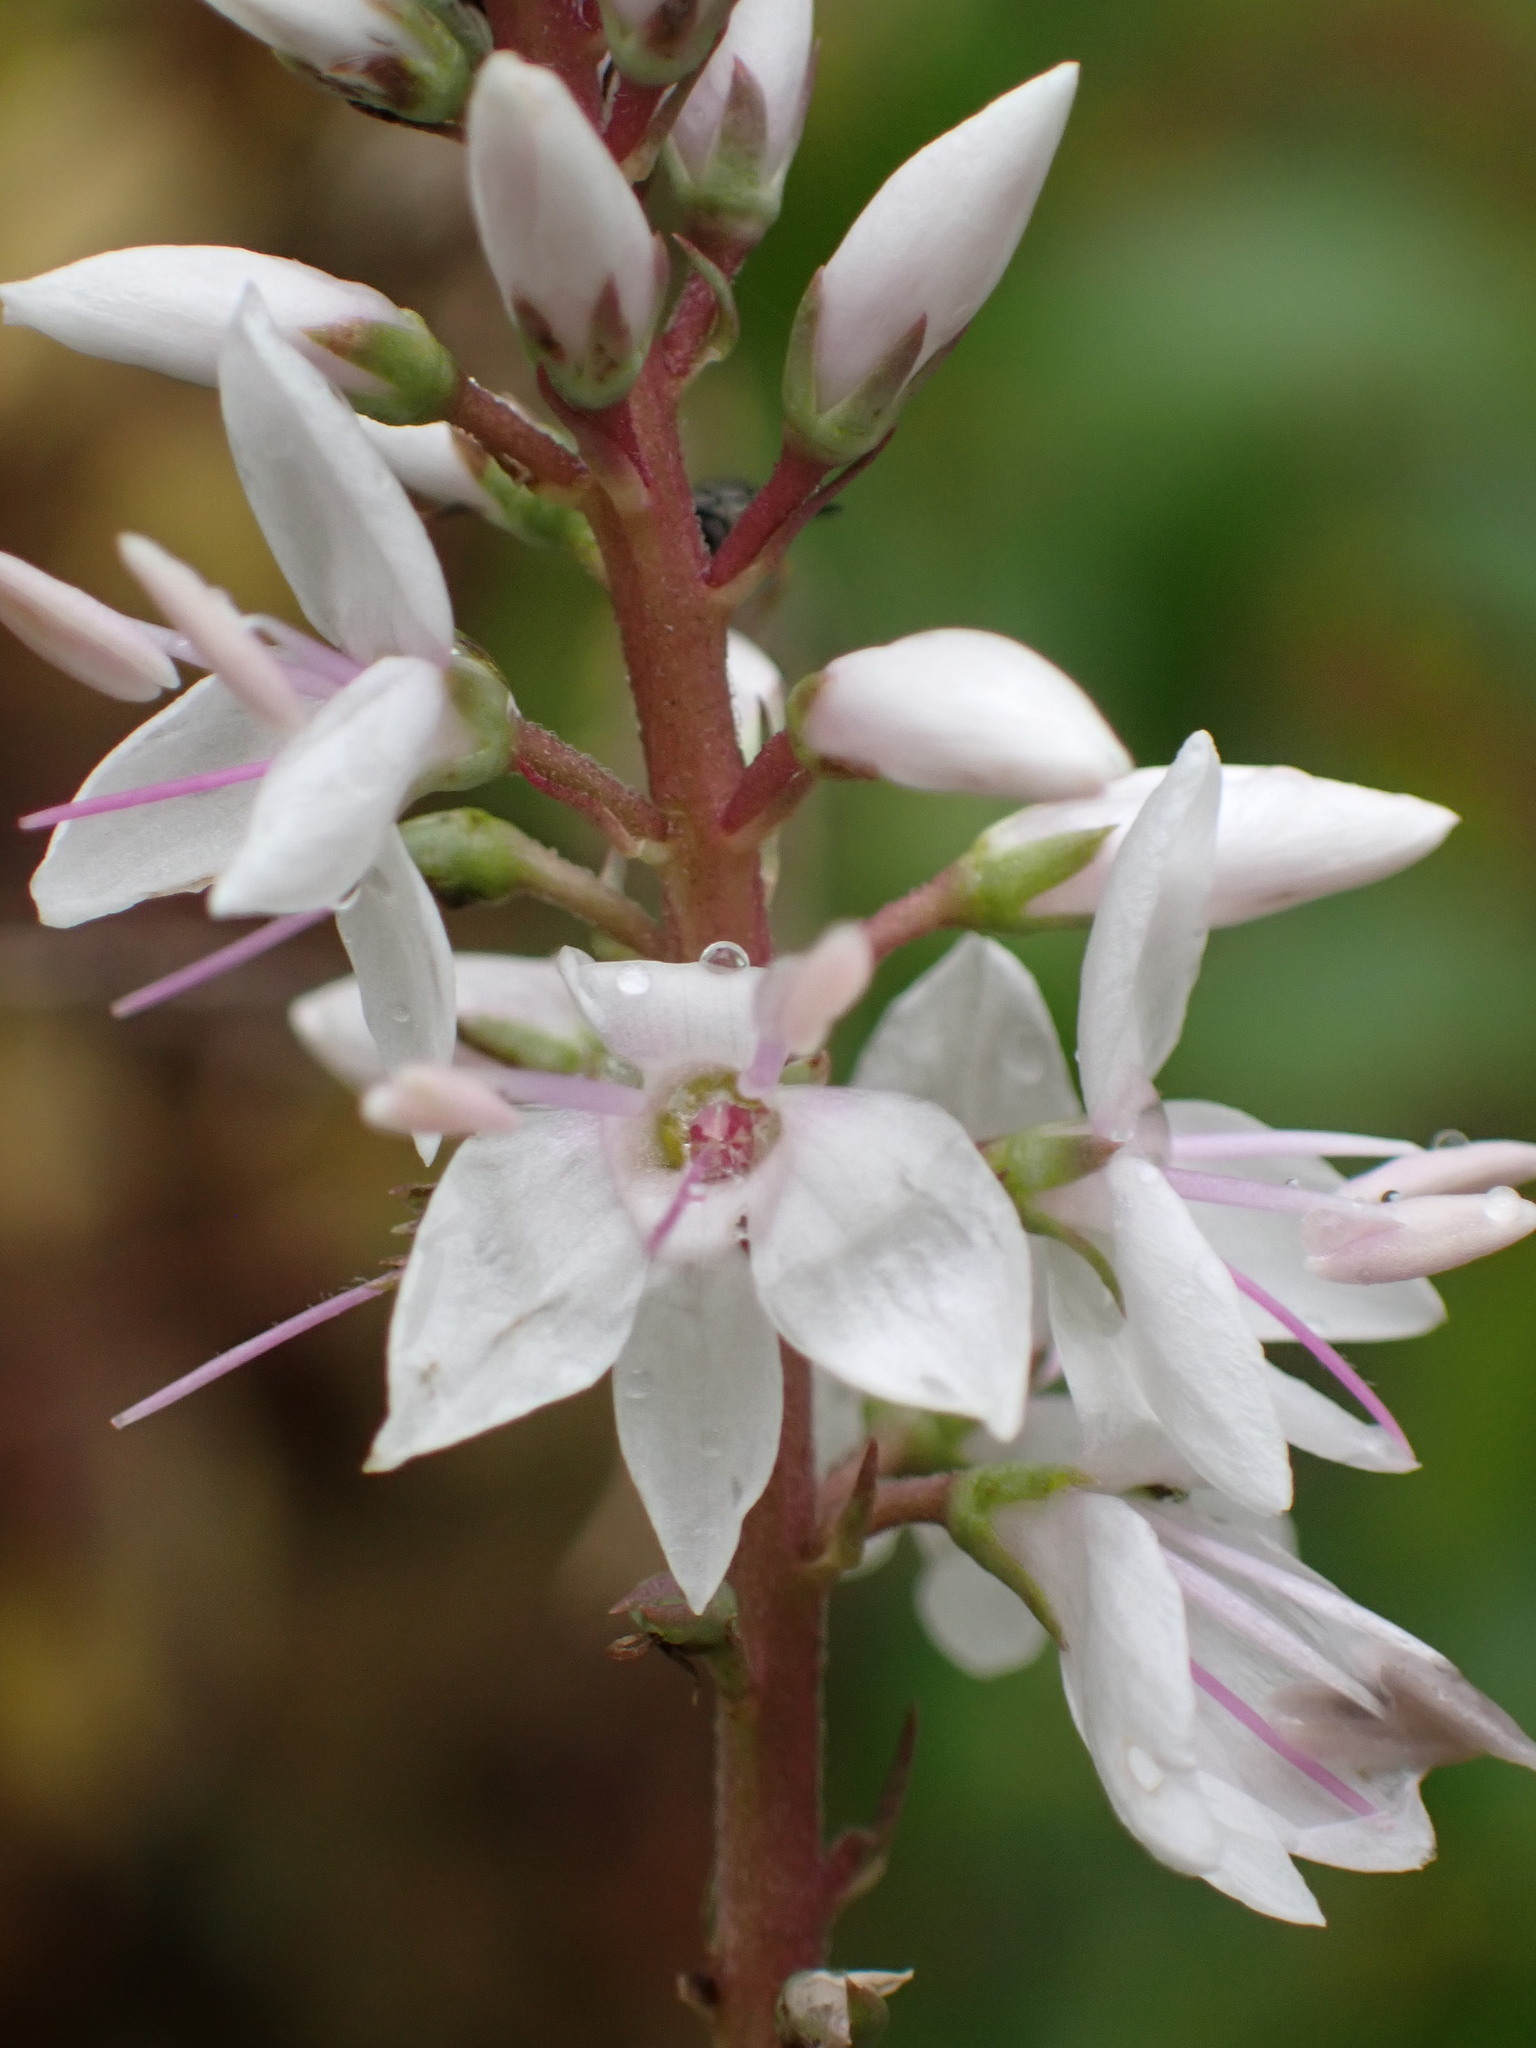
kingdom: Plantae
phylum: Tracheophyta
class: Magnoliopsida
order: Lamiales
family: Plantaginaceae
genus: Veronica
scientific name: Veronica derwentiana
